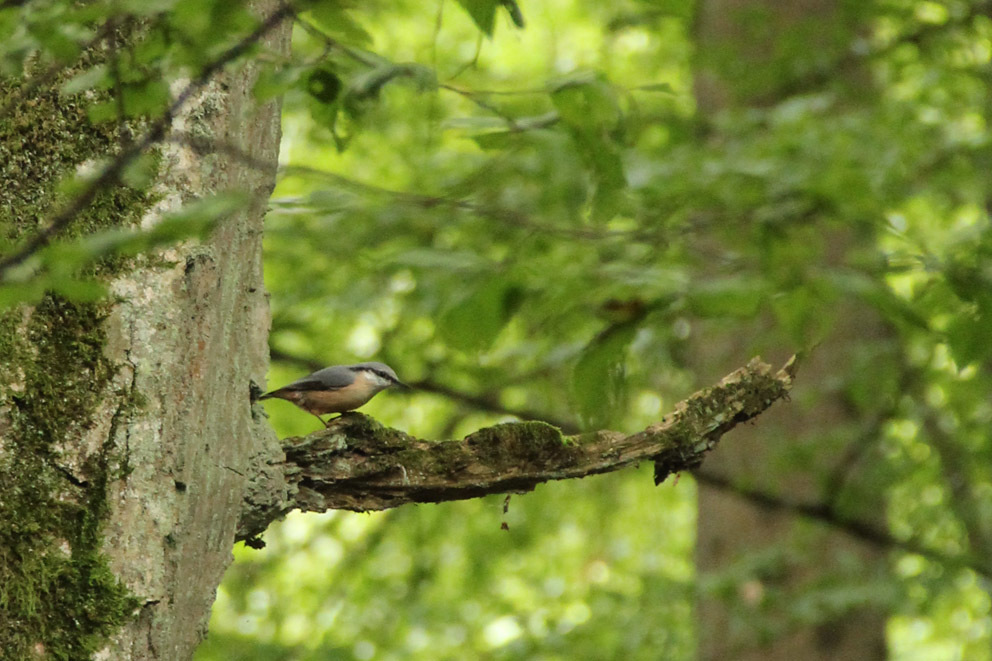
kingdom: Animalia
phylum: Chordata
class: Aves
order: Passeriformes
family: Sittidae
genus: Sitta
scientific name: Sitta europaea
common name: Eurasian nuthatch
